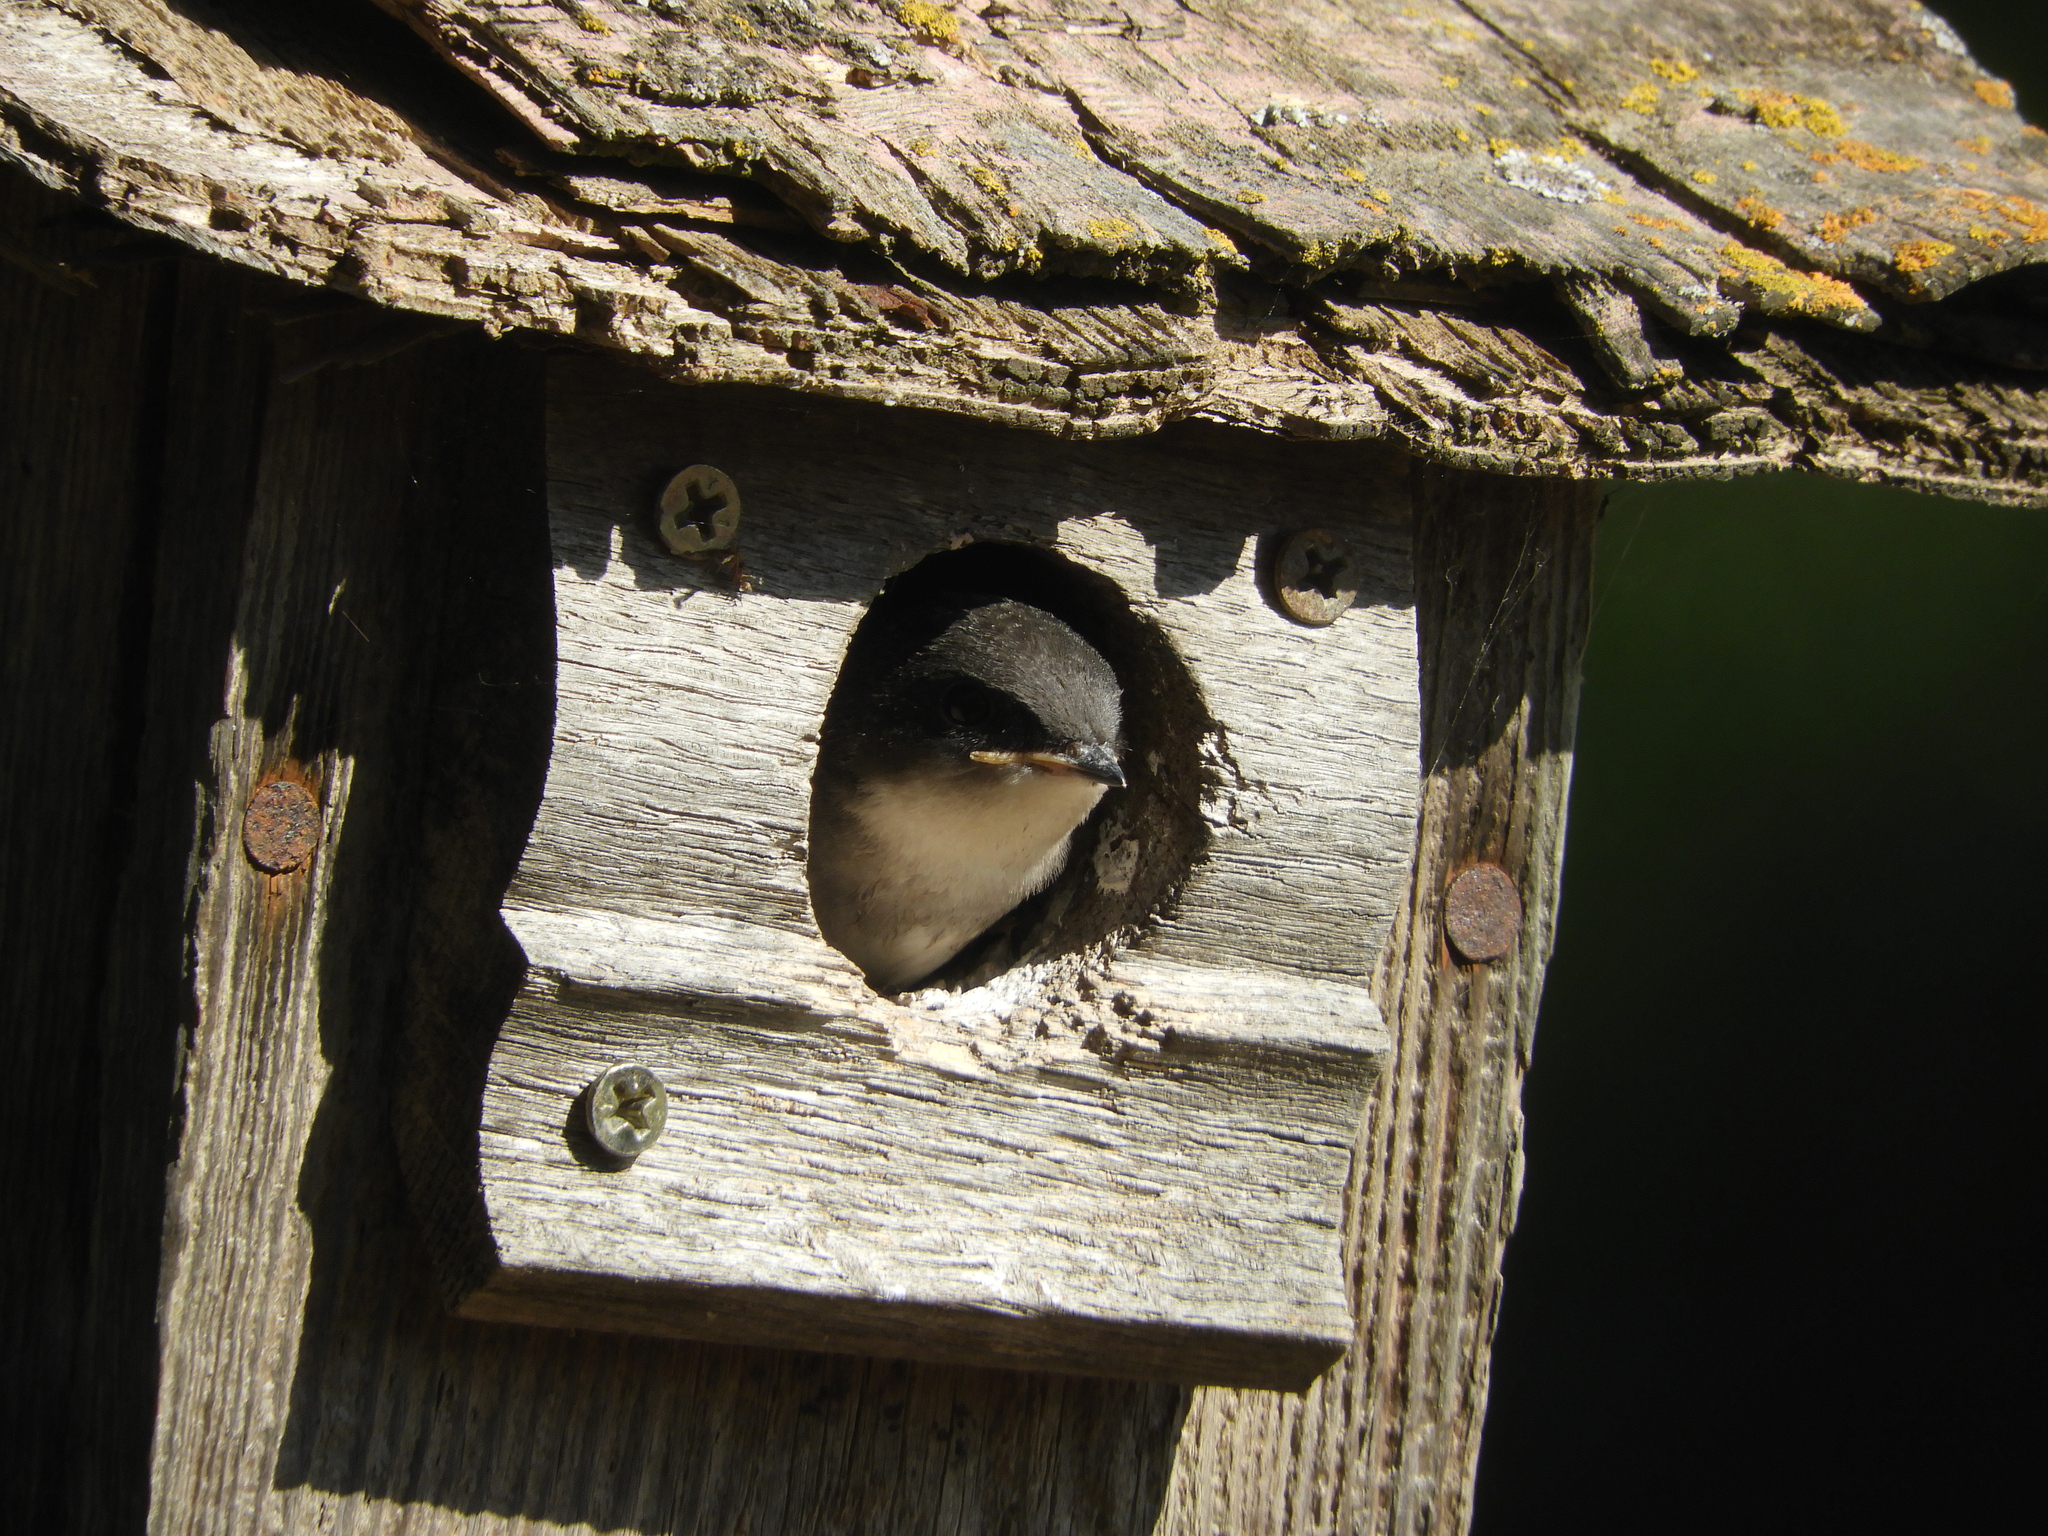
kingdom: Animalia
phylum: Chordata
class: Aves
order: Passeriformes
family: Hirundinidae
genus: Tachycineta
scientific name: Tachycineta bicolor
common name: Tree swallow
